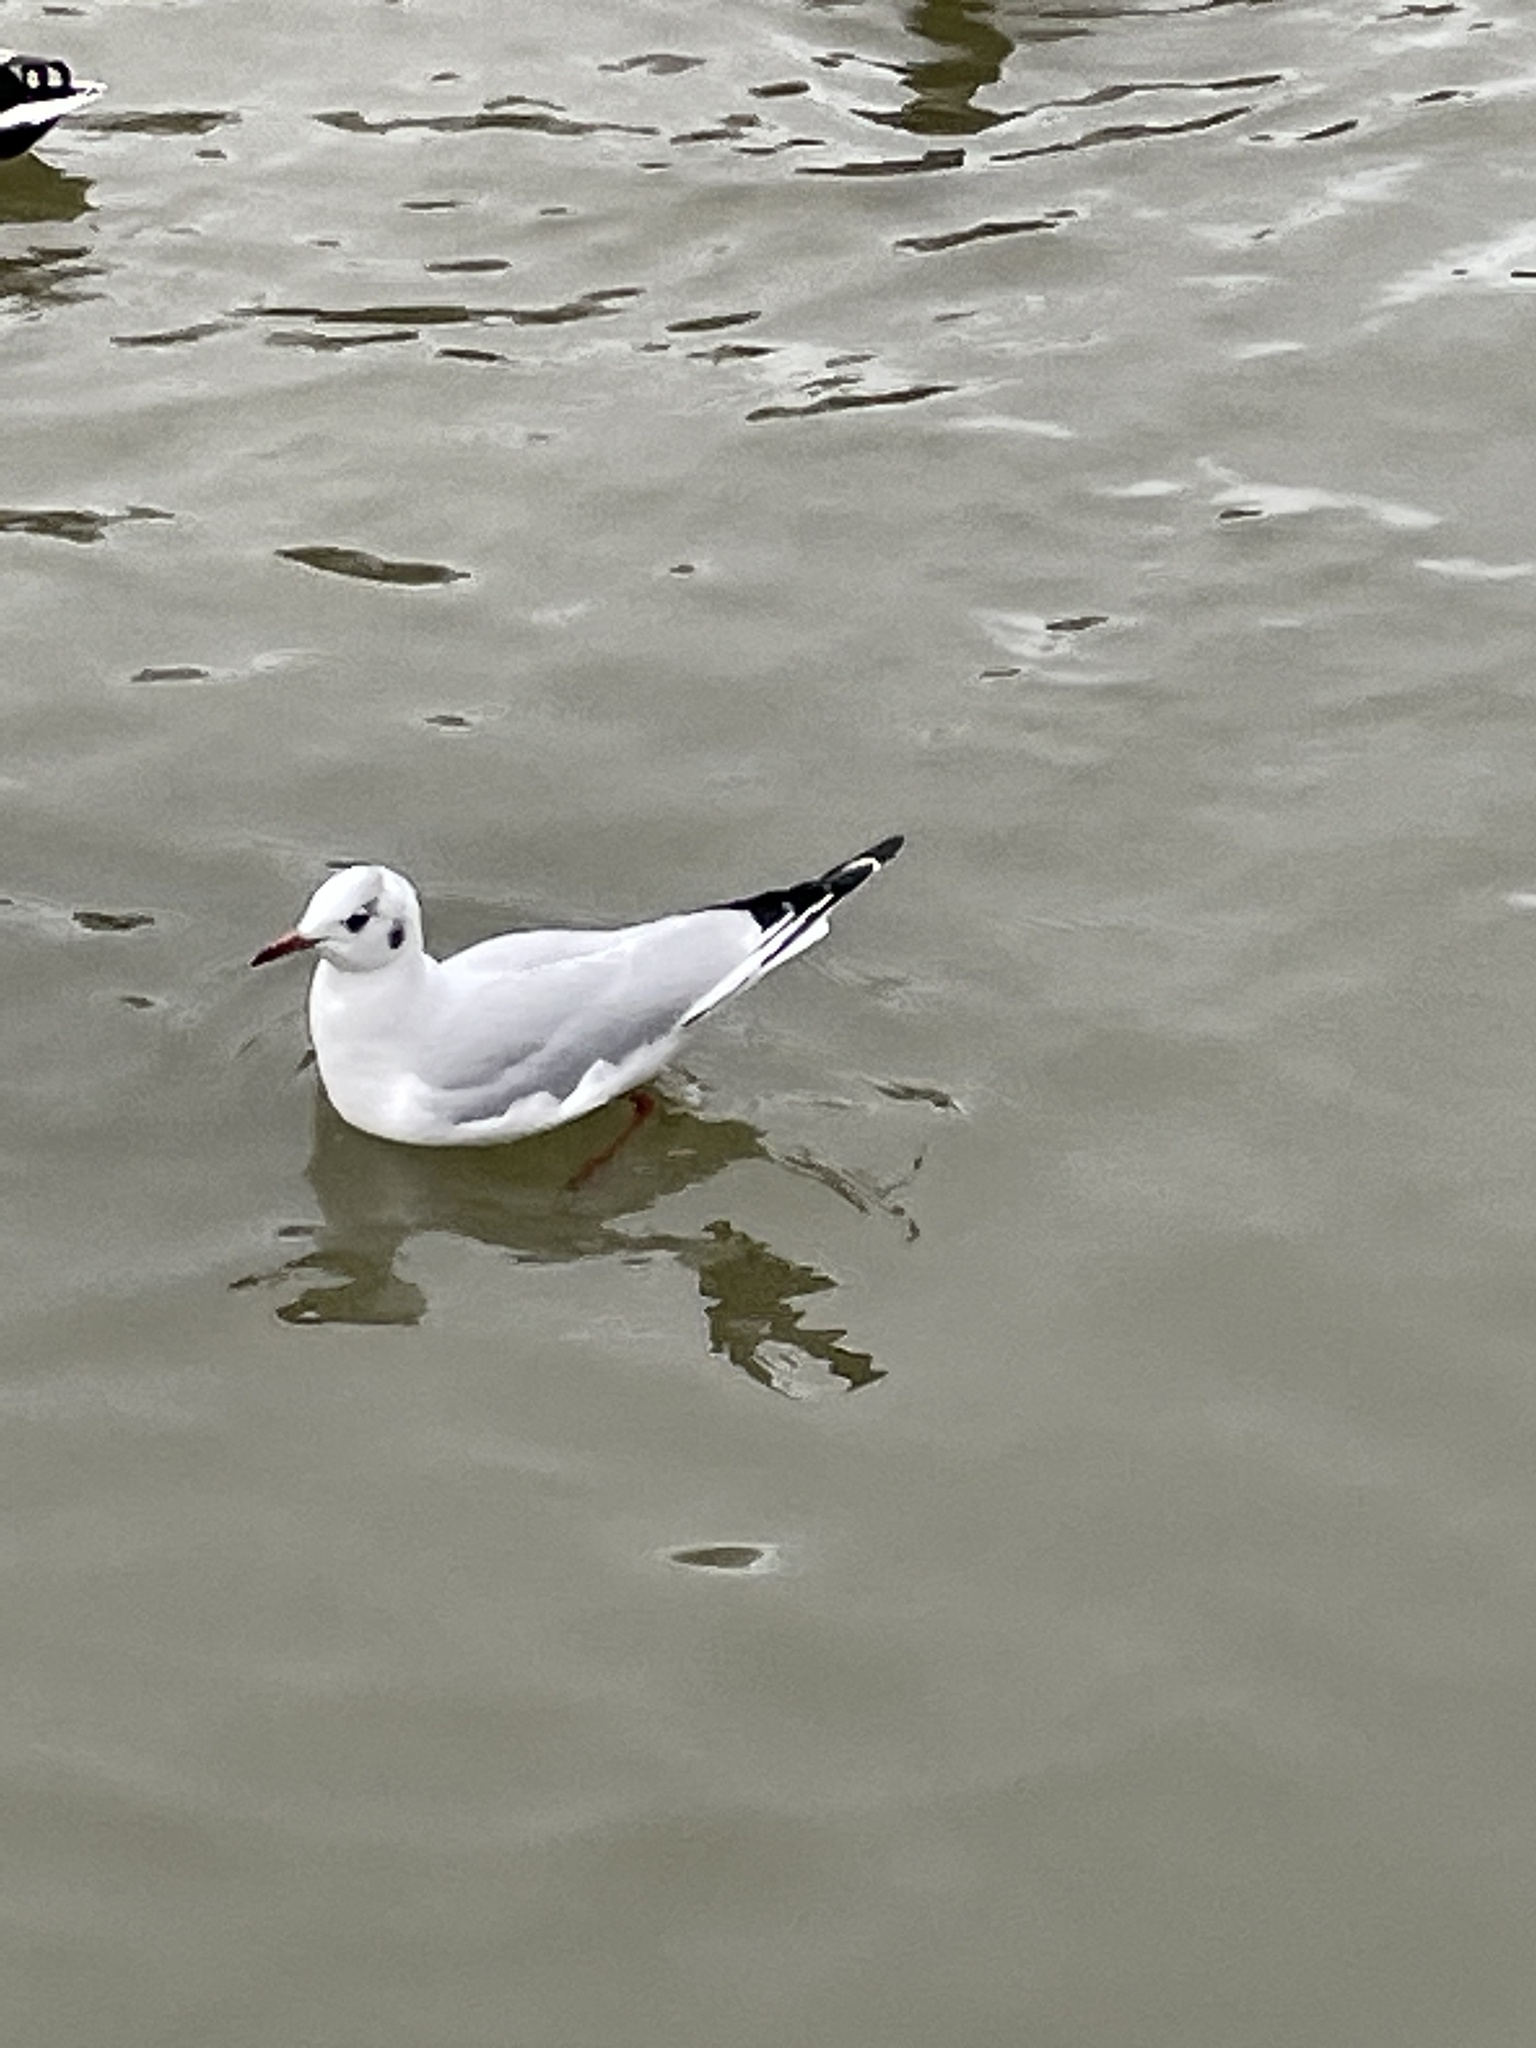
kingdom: Animalia
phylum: Chordata
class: Aves
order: Charadriiformes
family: Laridae
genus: Chroicocephalus
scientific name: Chroicocephalus ridibundus
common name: Black-headed gull
